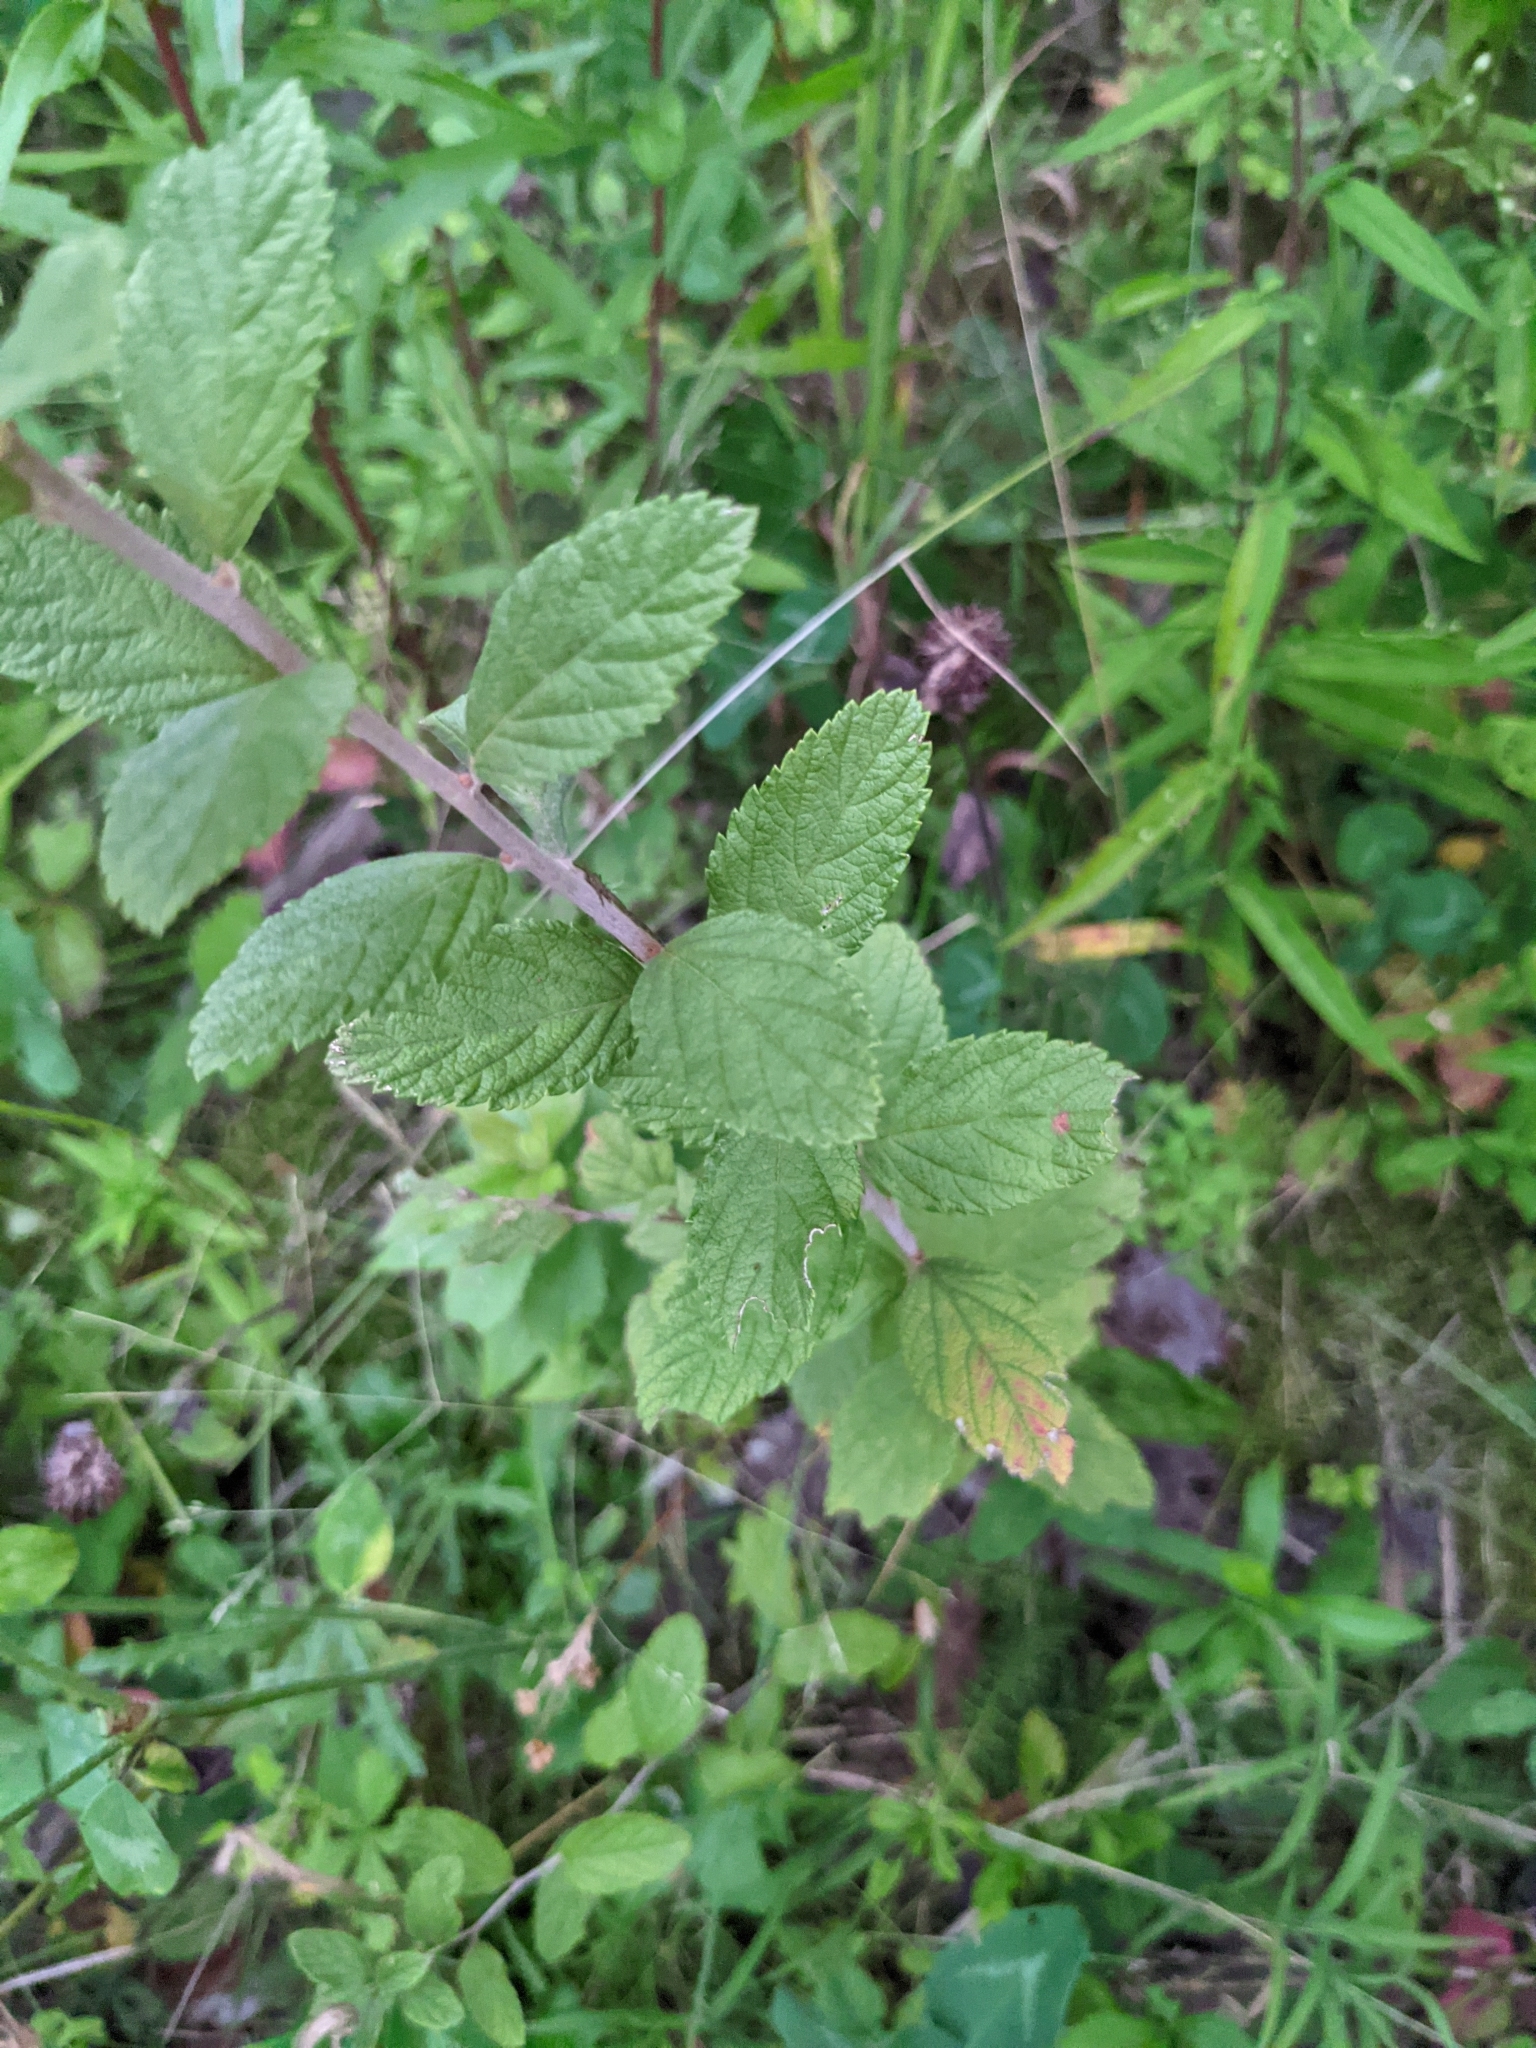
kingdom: Plantae
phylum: Tracheophyta
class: Magnoliopsida
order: Rosales
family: Rosaceae
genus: Spiraea
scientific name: Spiraea tomentosa
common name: Hardhack
